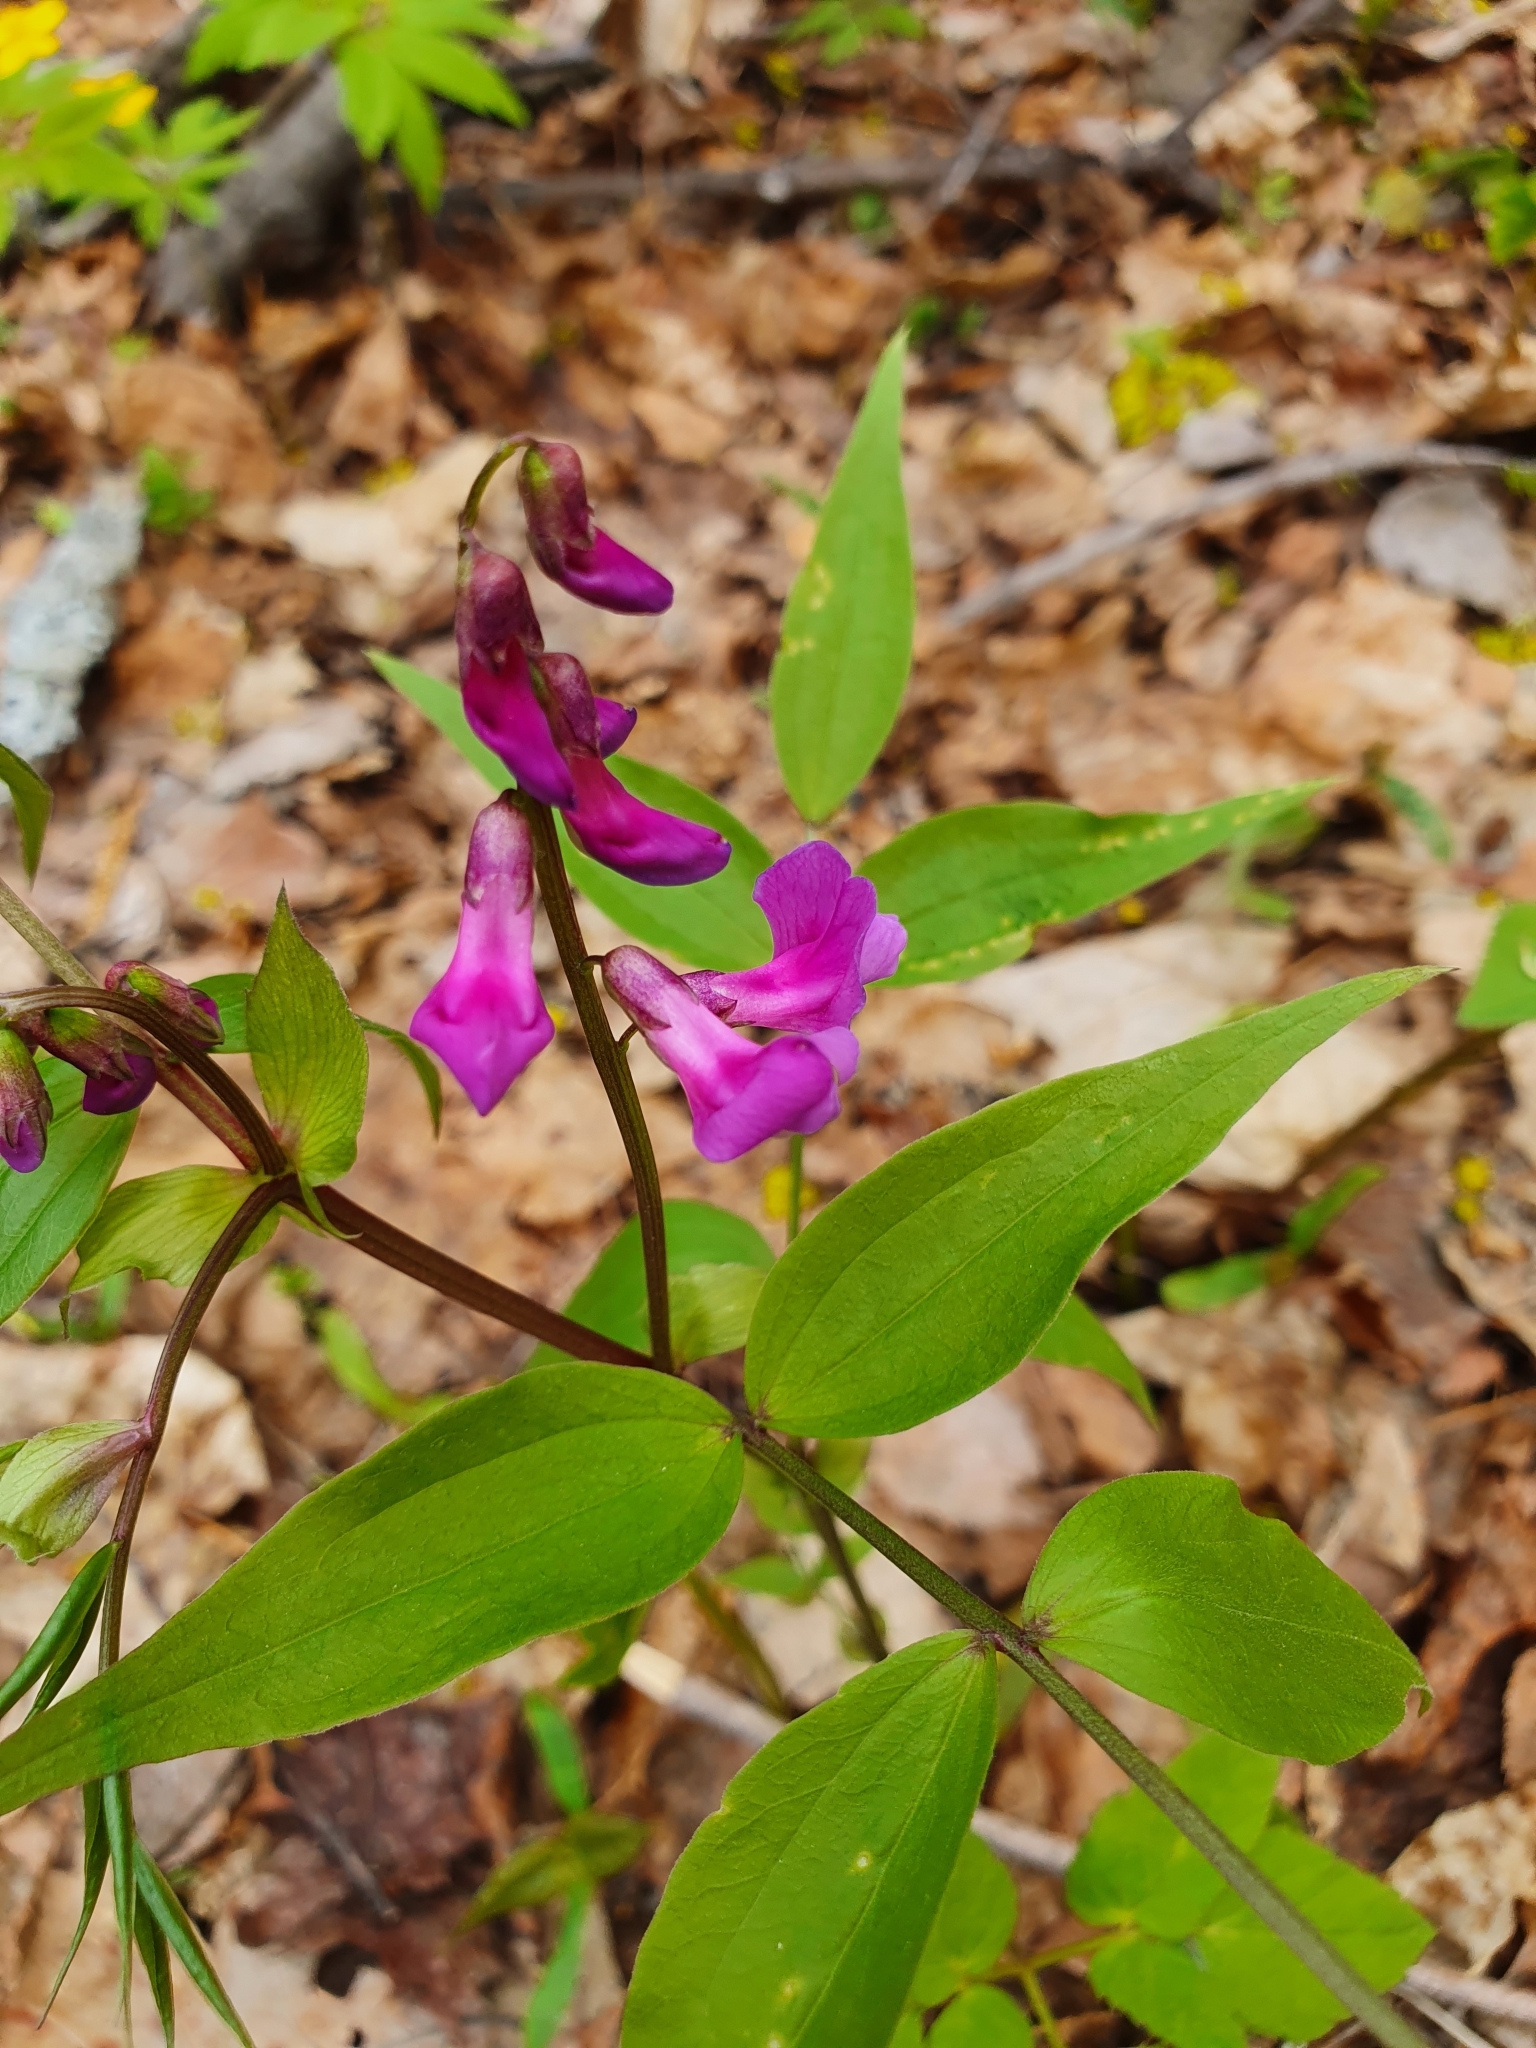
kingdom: Plantae
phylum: Tracheophyta
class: Magnoliopsida
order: Fabales
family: Fabaceae
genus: Lathyrus
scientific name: Lathyrus vernus
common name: Spring pea
